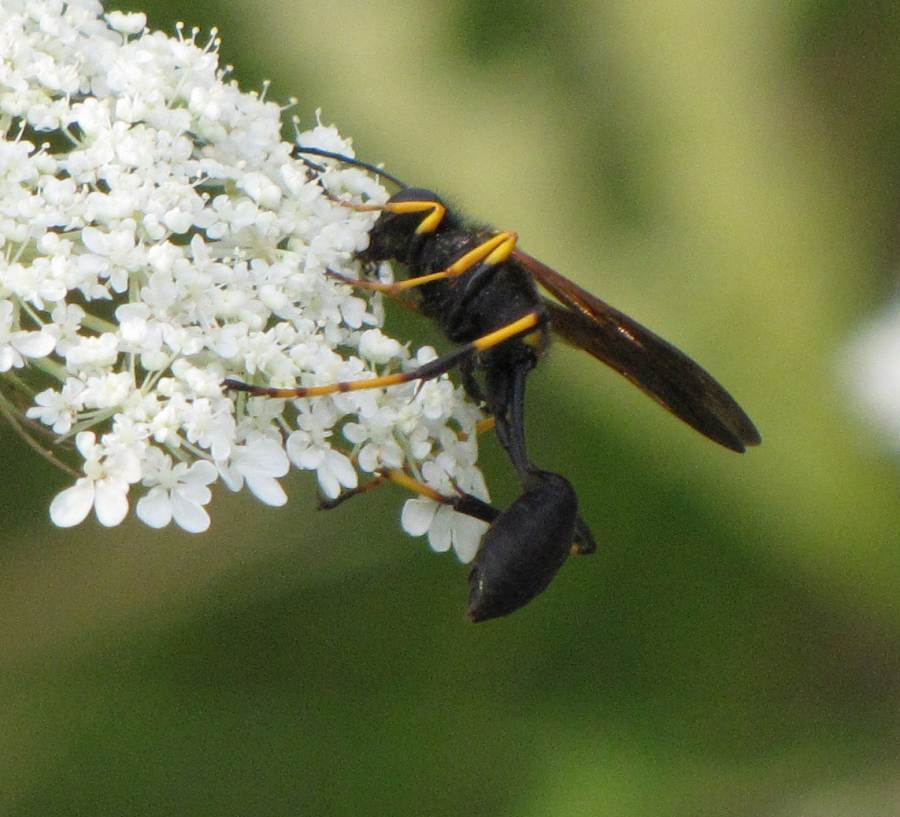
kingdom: Animalia
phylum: Arthropoda
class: Insecta
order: Hymenoptera
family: Sphecidae
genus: Sceliphron
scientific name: Sceliphron caementarium
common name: Mud dauber
